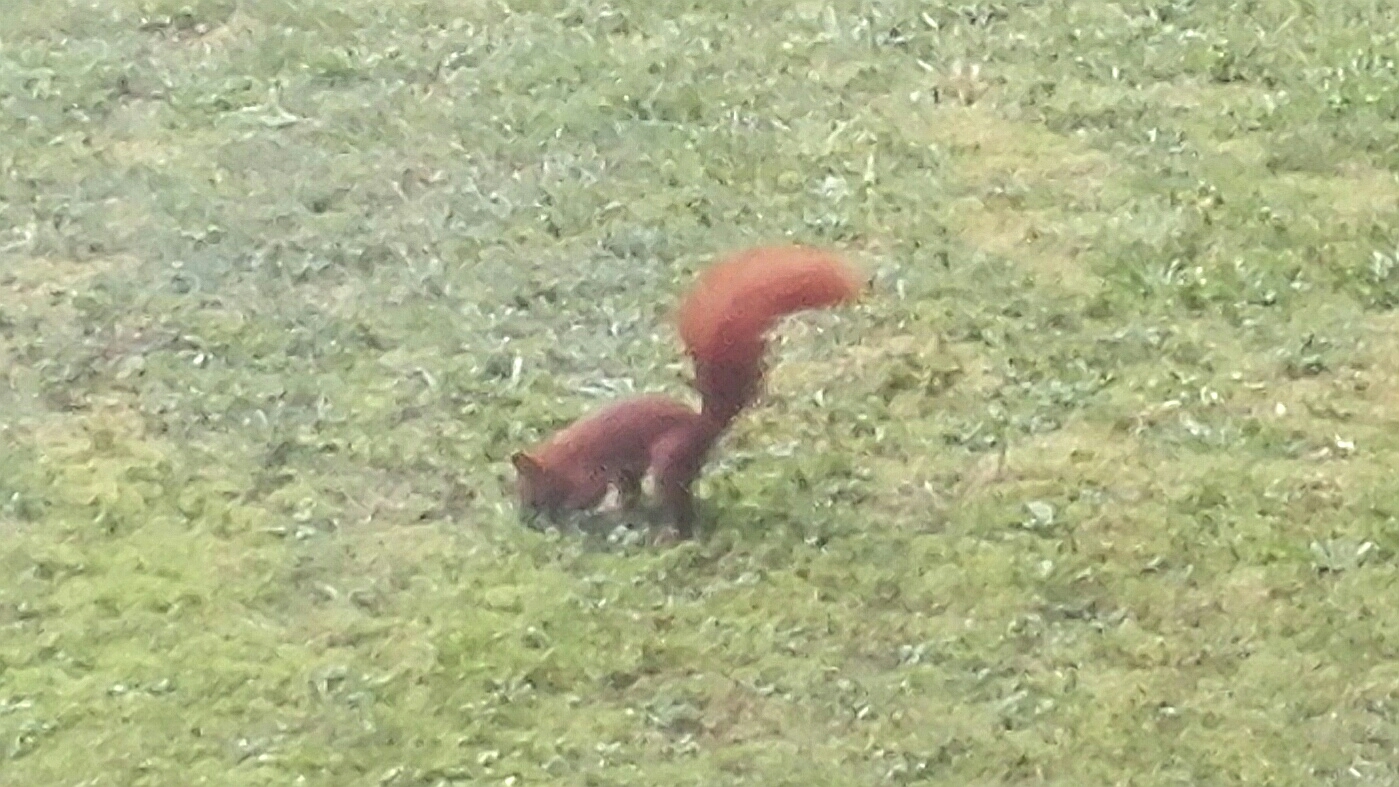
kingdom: Animalia
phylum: Chordata
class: Mammalia
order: Rodentia
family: Sciuridae
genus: Sciurus
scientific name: Sciurus vulgaris
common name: Eurasian red squirrel
